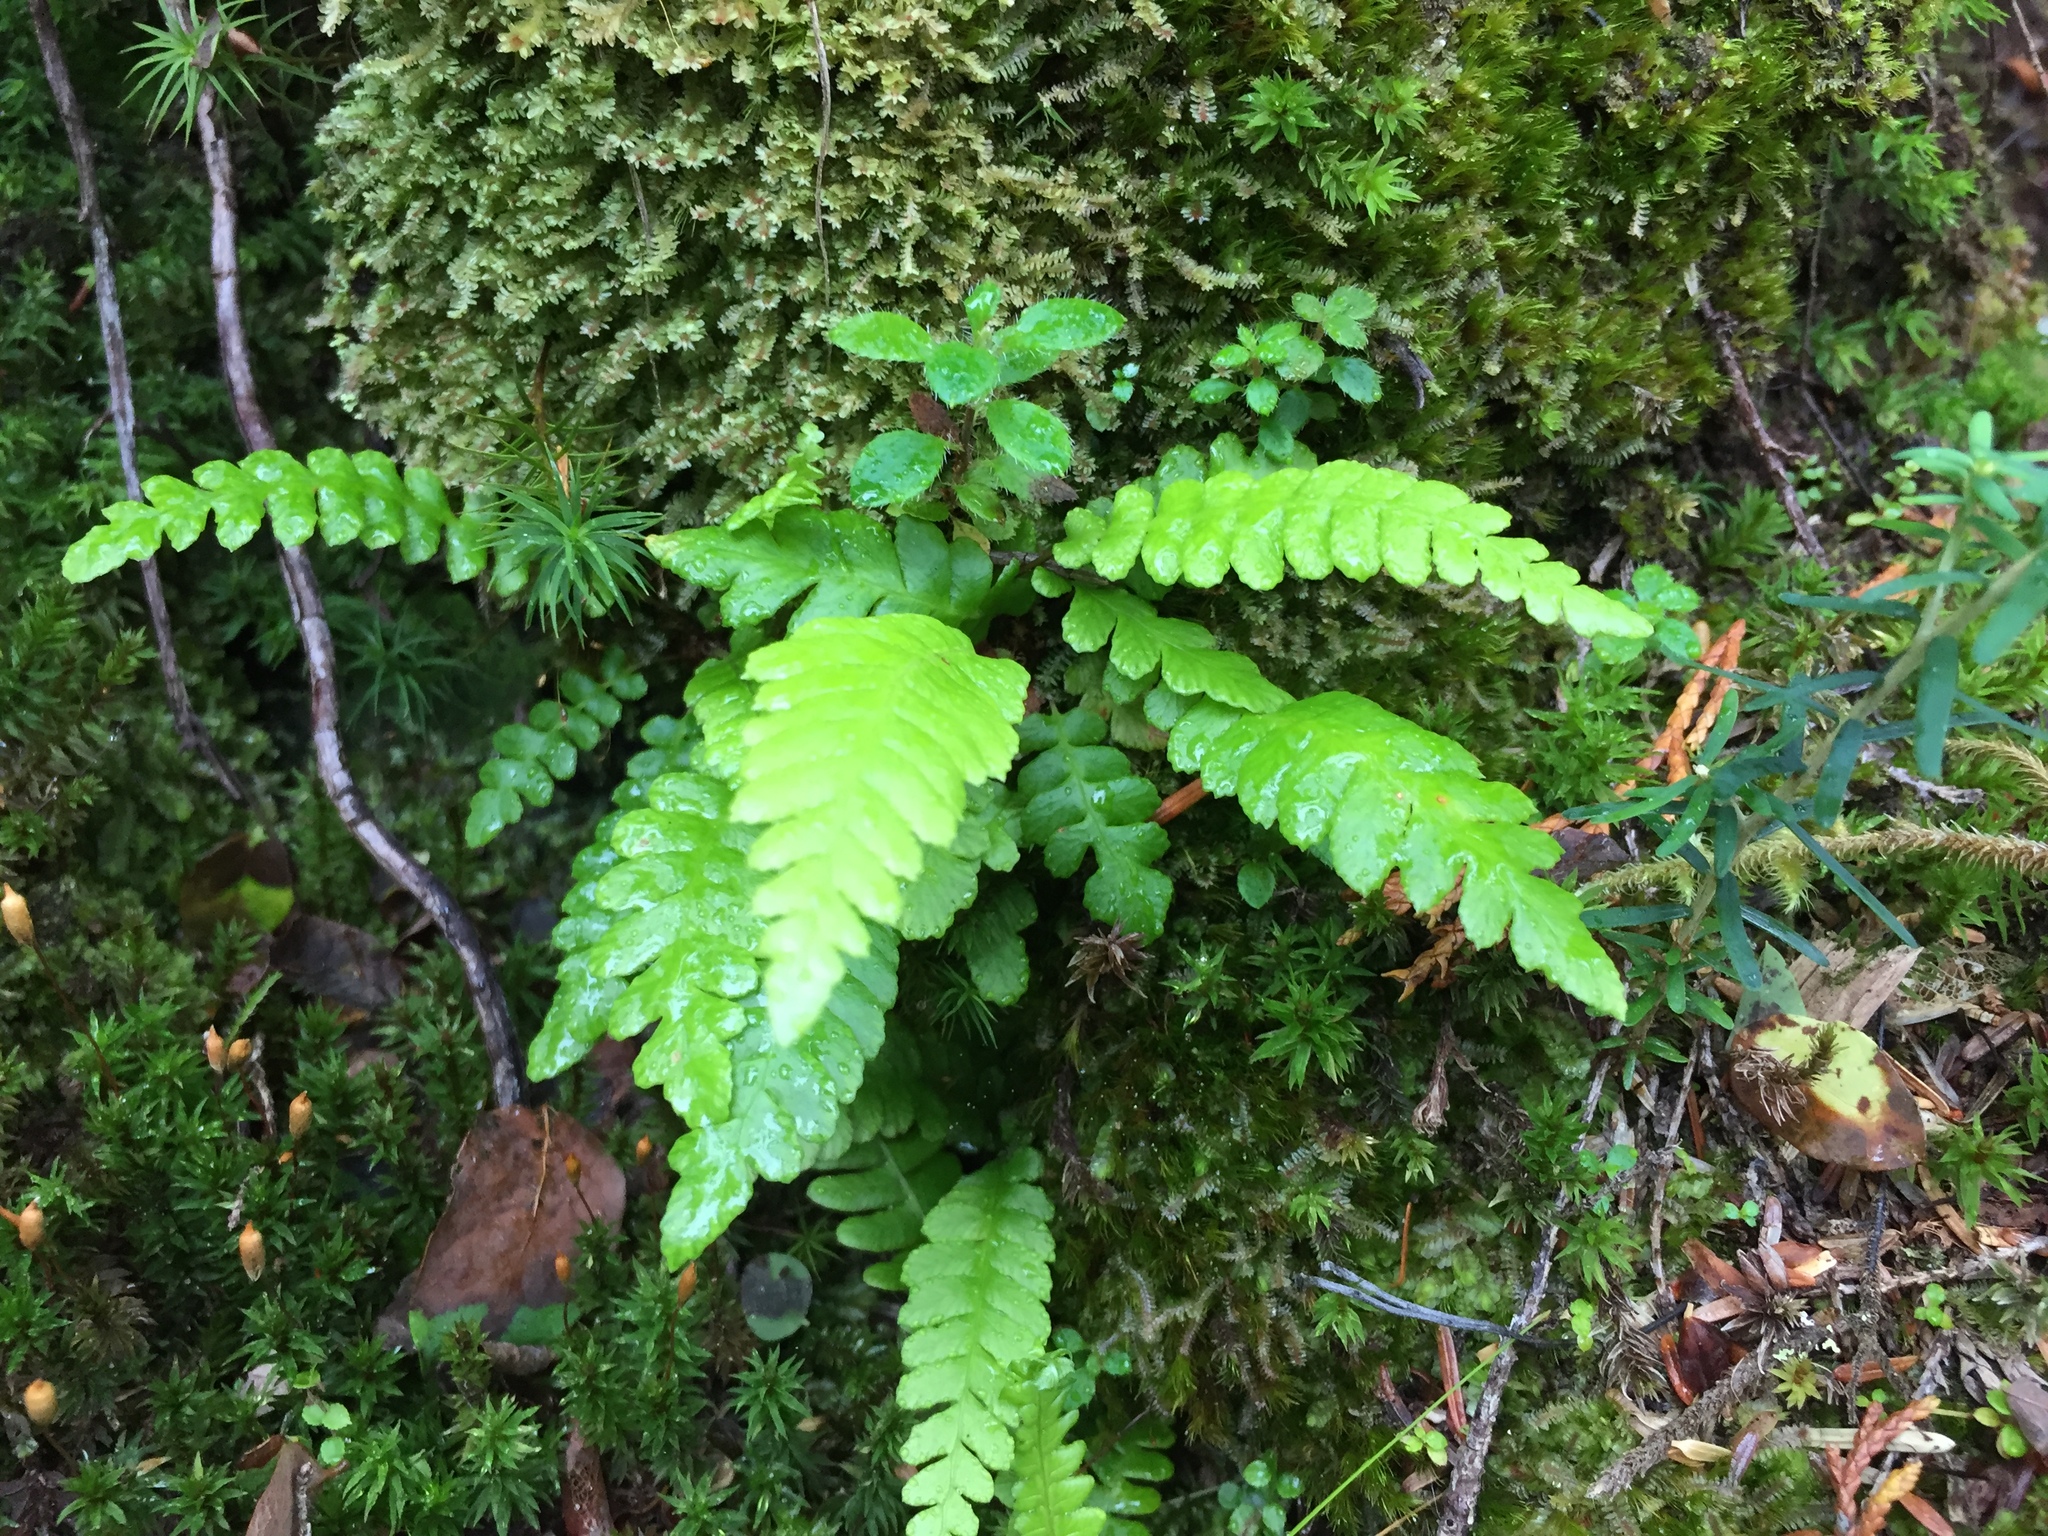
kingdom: Plantae
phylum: Tracheophyta
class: Polypodiopsida
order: Polypodiales
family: Blechnaceae
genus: Struthiopteris
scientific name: Struthiopteris spicant
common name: Deer fern
